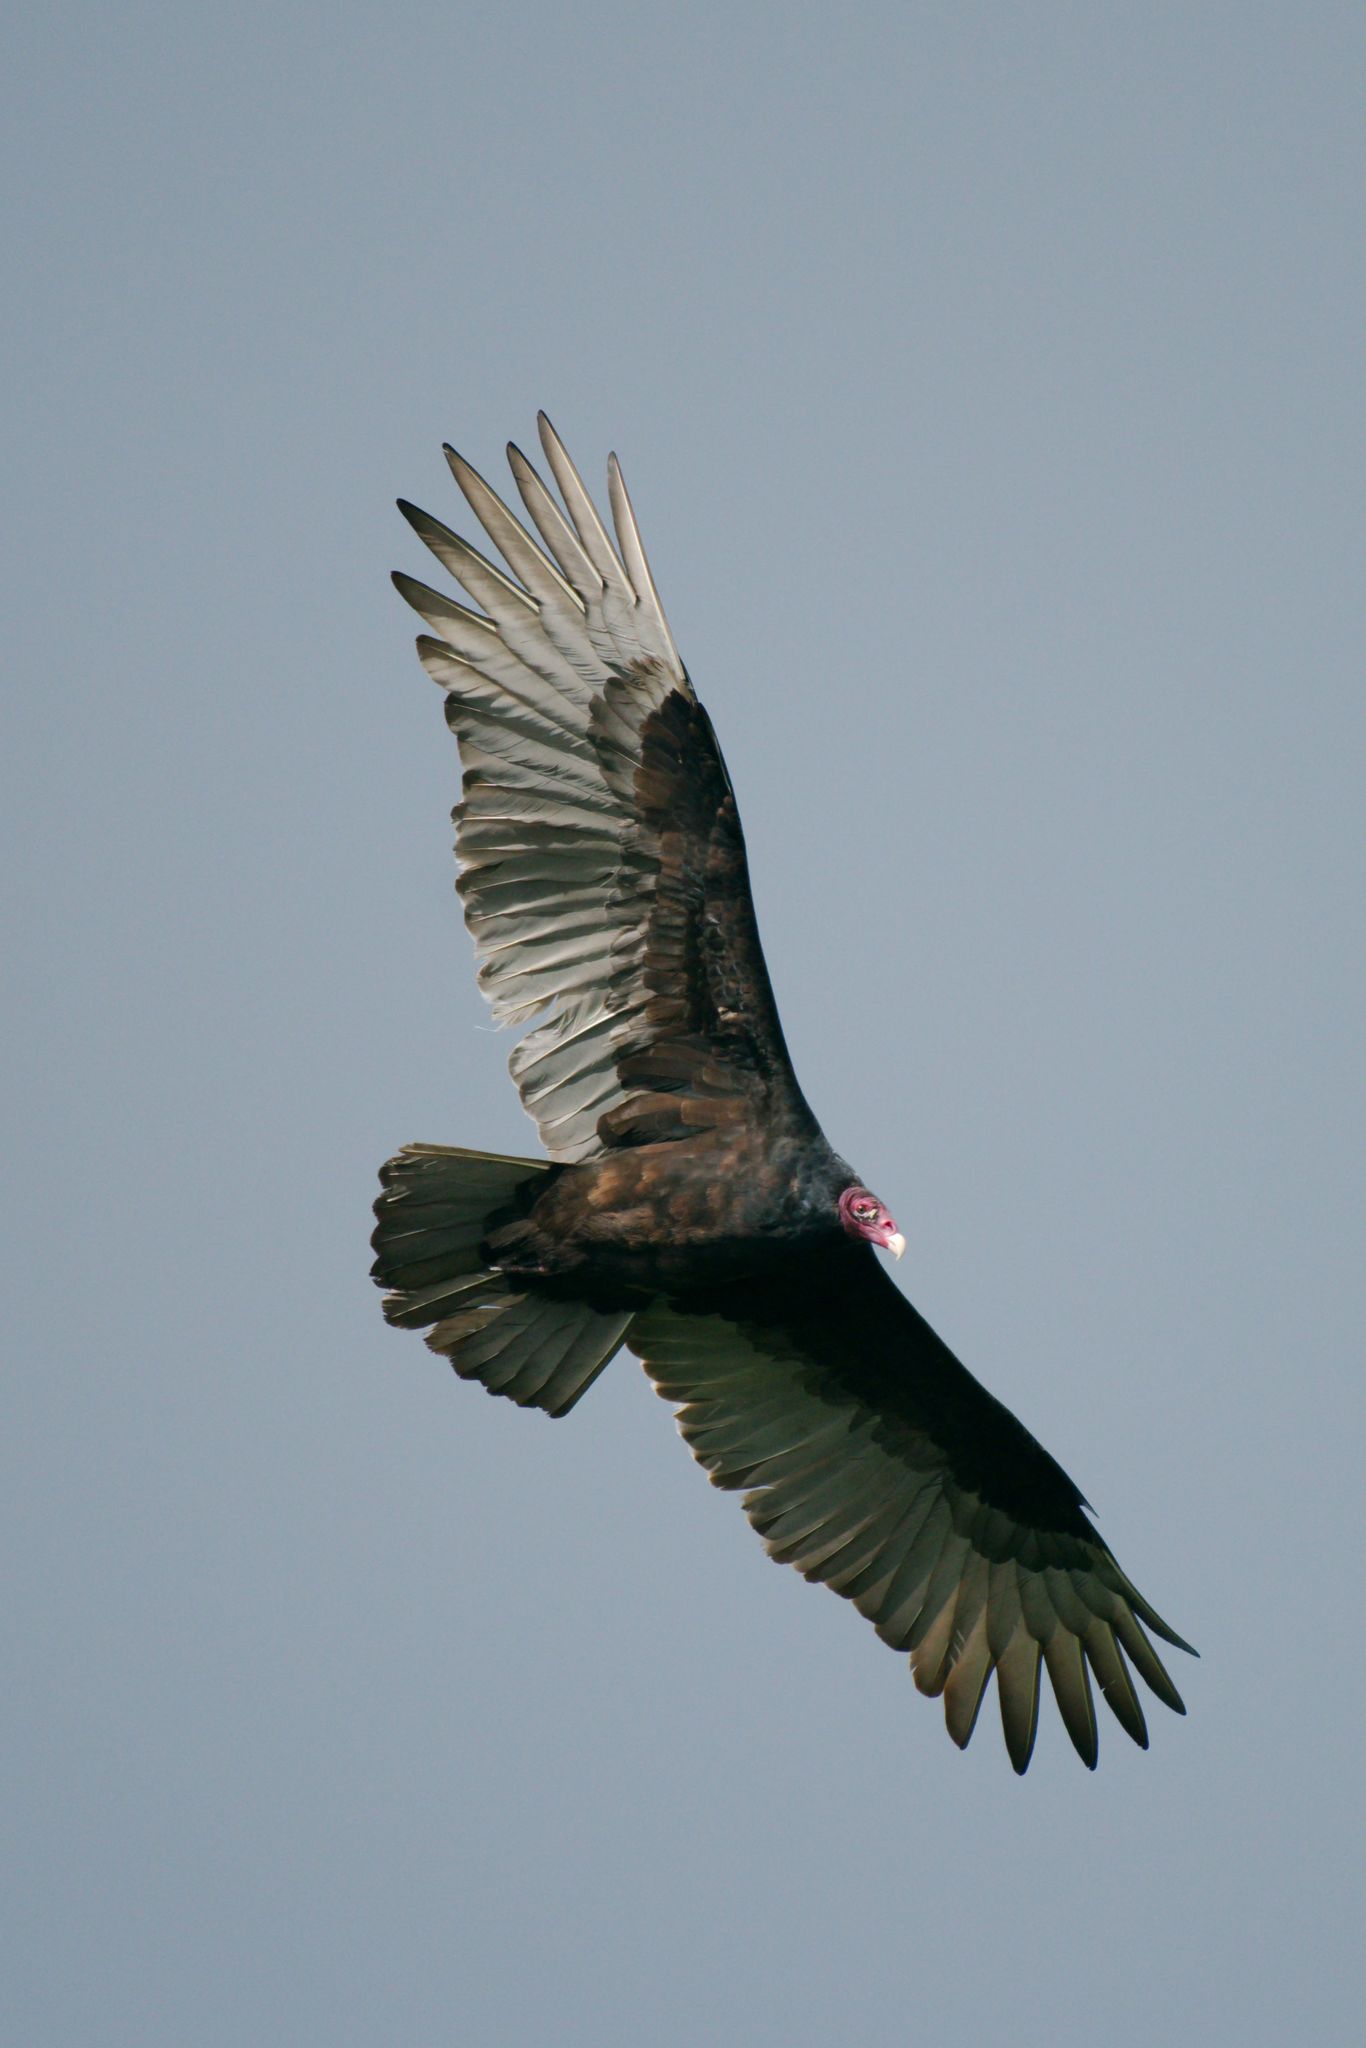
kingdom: Animalia
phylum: Chordata
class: Aves
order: Accipitriformes
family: Cathartidae
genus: Cathartes
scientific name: Cathartes aura
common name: Turkey vulture
